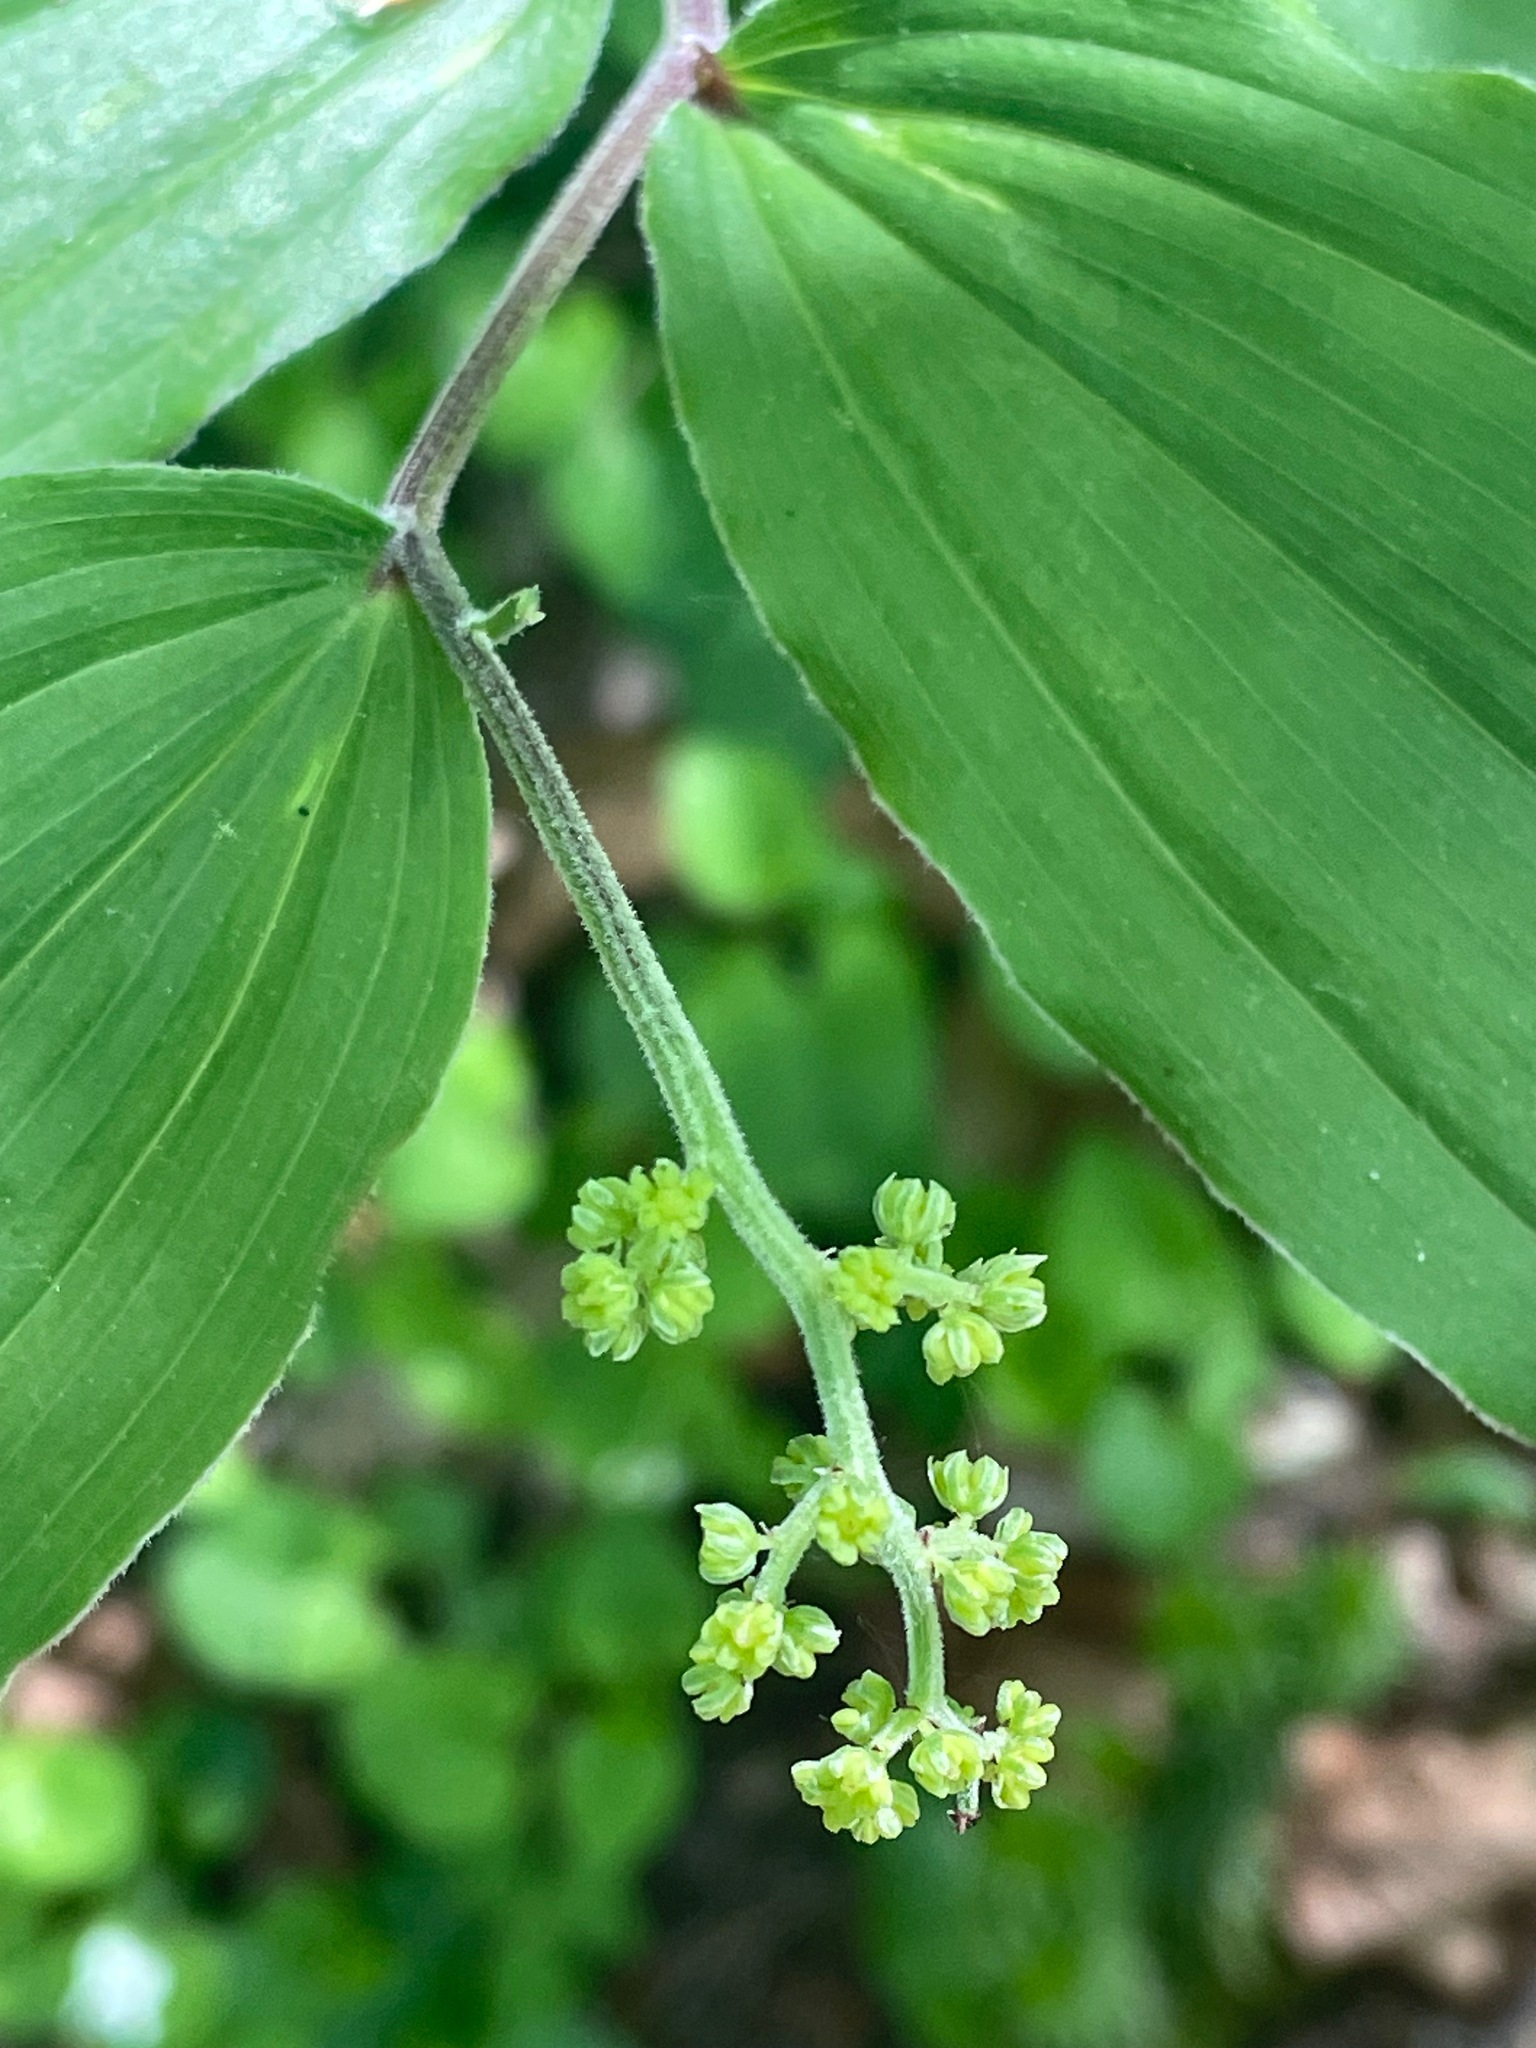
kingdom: Plantae
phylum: Tracheophyta
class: Liliopsida
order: Asparagales
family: Asparagaceae
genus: Maianthemum
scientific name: Maianthemum racemosum
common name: False spikenard
